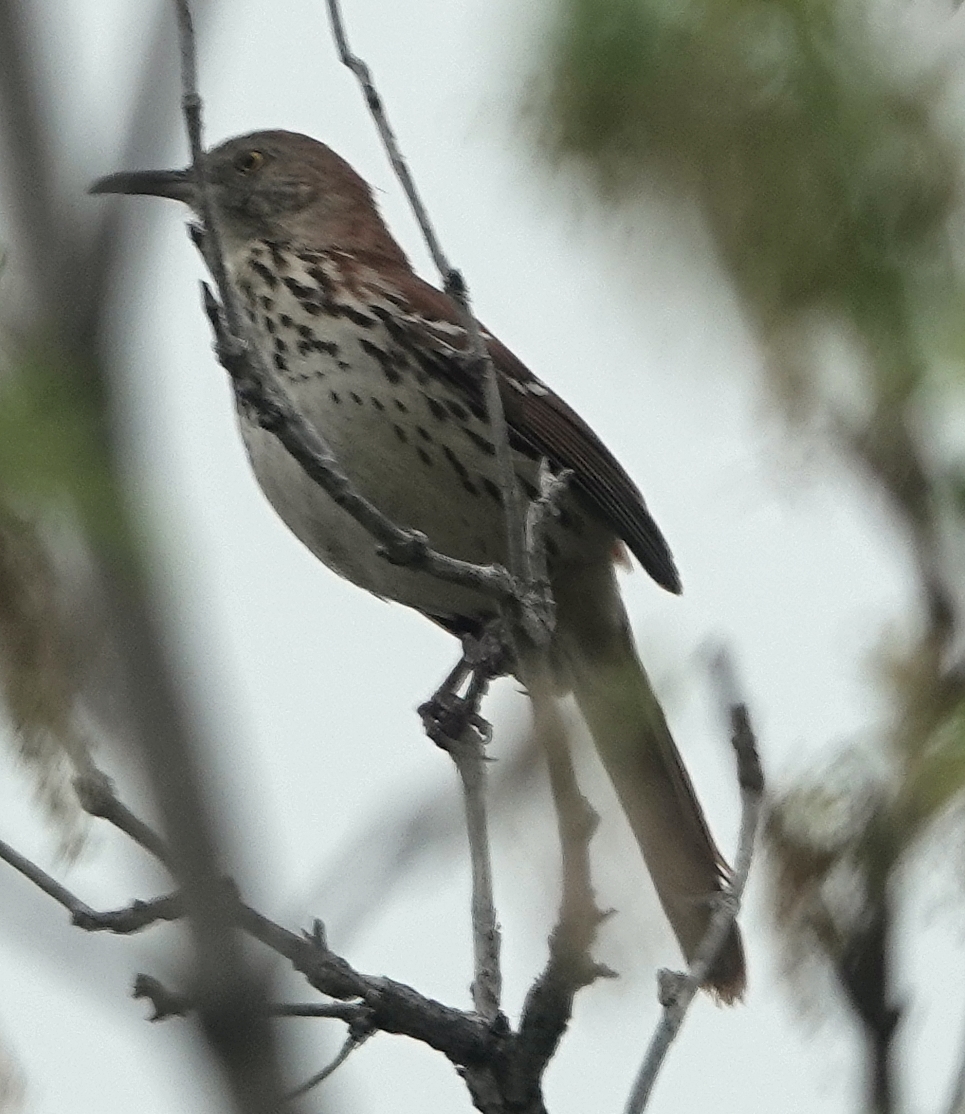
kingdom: Animalia
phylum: Chordata
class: Aves
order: Passeriformes
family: Mimidae
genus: Toxostoma
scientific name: Toxostoma rufum
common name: Brown thrasher
